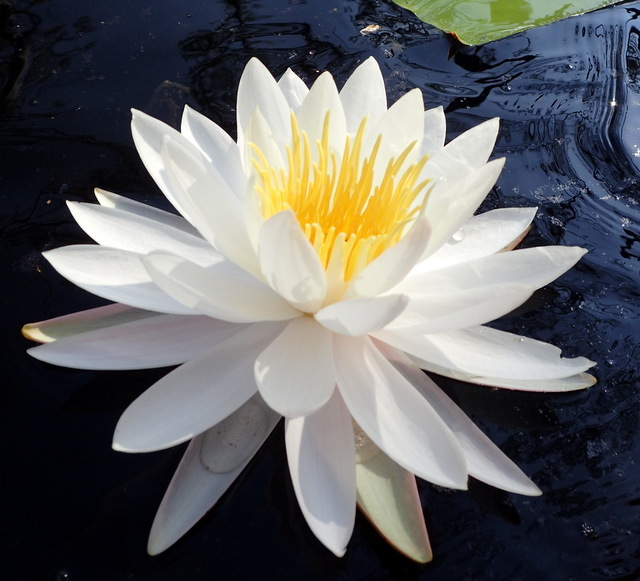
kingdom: Plantae
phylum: Tracheophyta
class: Magnoliopsida
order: Nymphaeales
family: Nymphaeaceae
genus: Nymphaea
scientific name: Nymphaea odorata
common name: Fragrant water-lily
